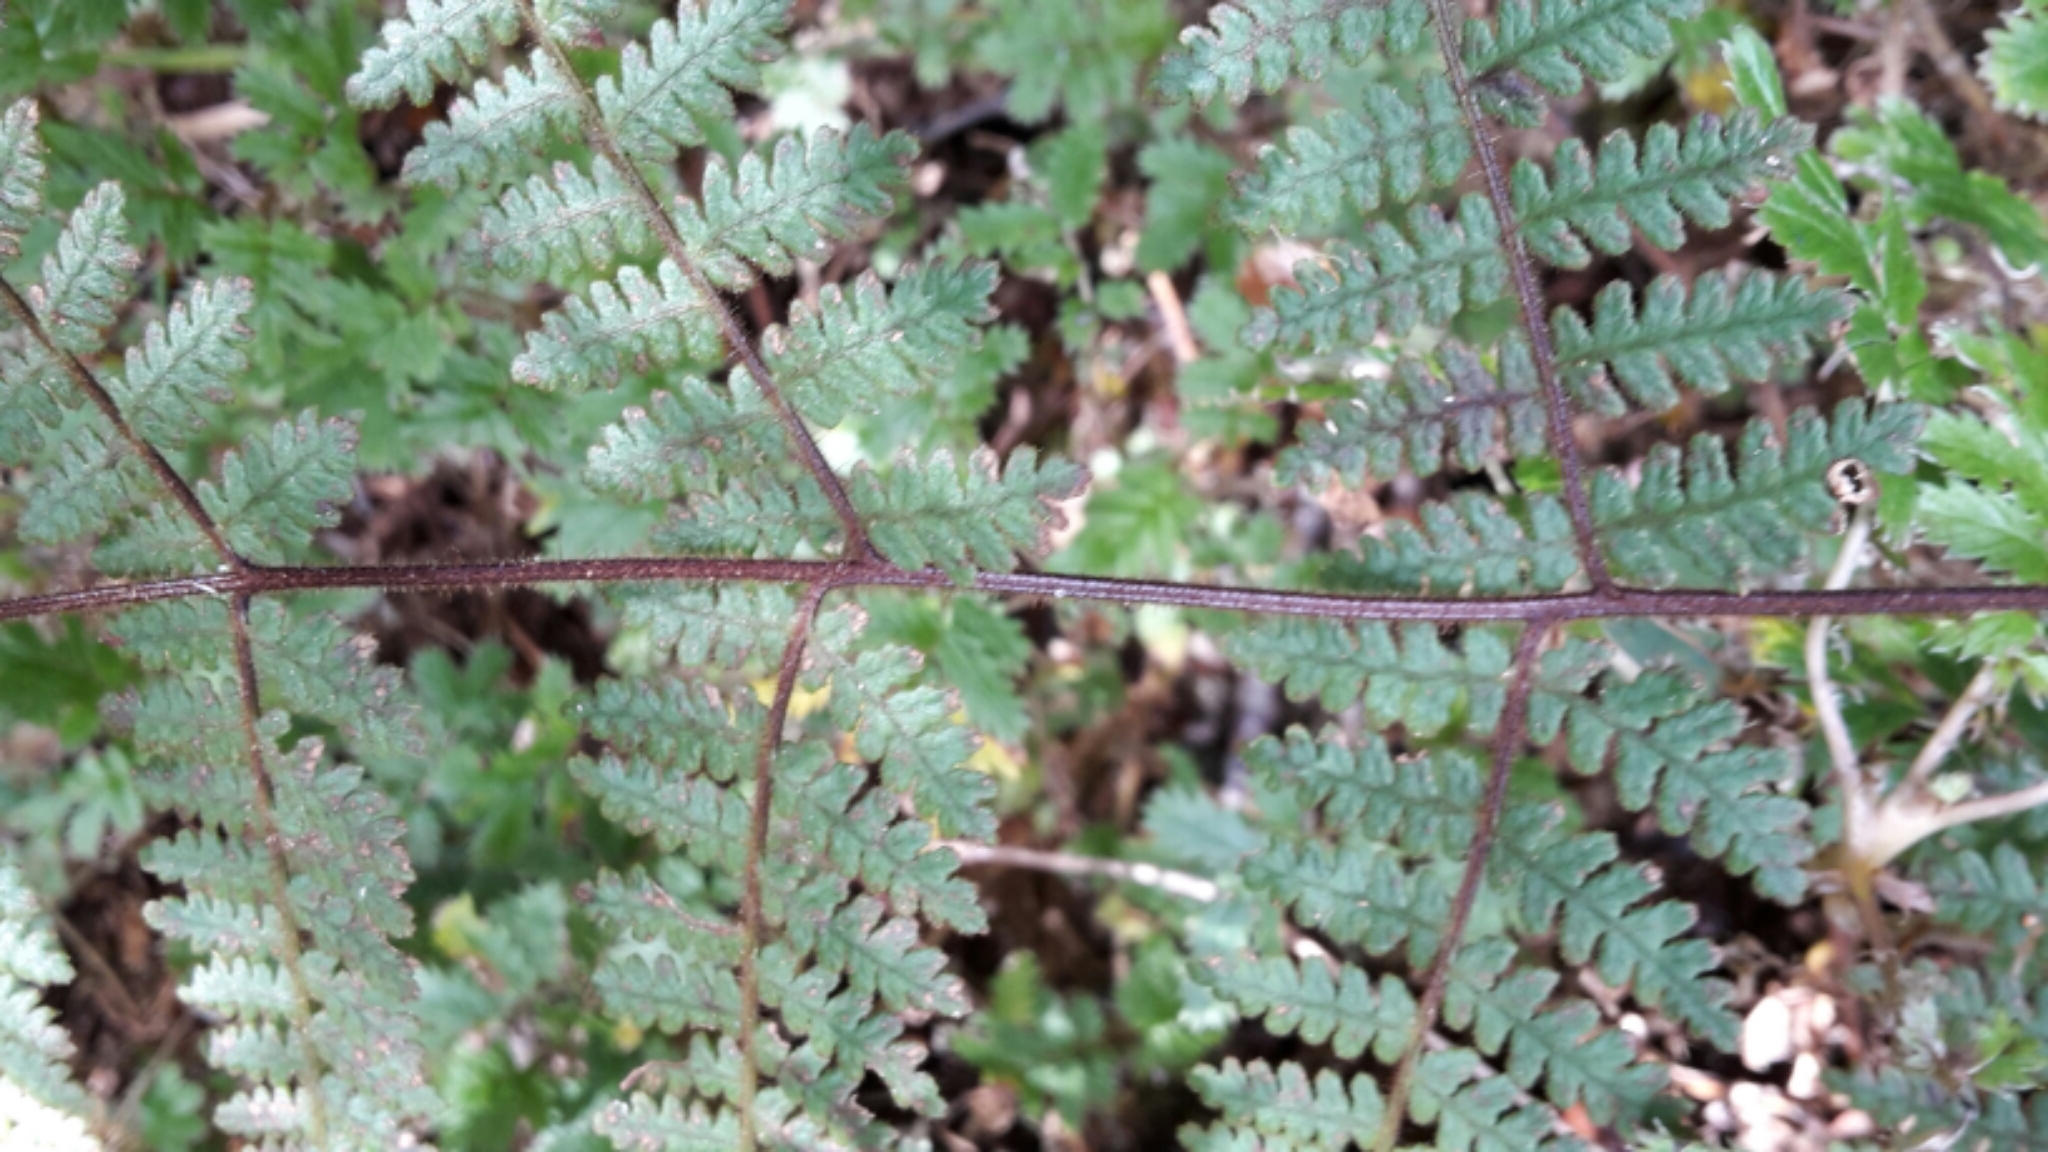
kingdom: Plantae
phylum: Tracheophyta
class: Polypodiopsida
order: Polypodiales
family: Dennstaedtiaceae
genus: Hypolepis
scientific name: Hypolepis rugosula
